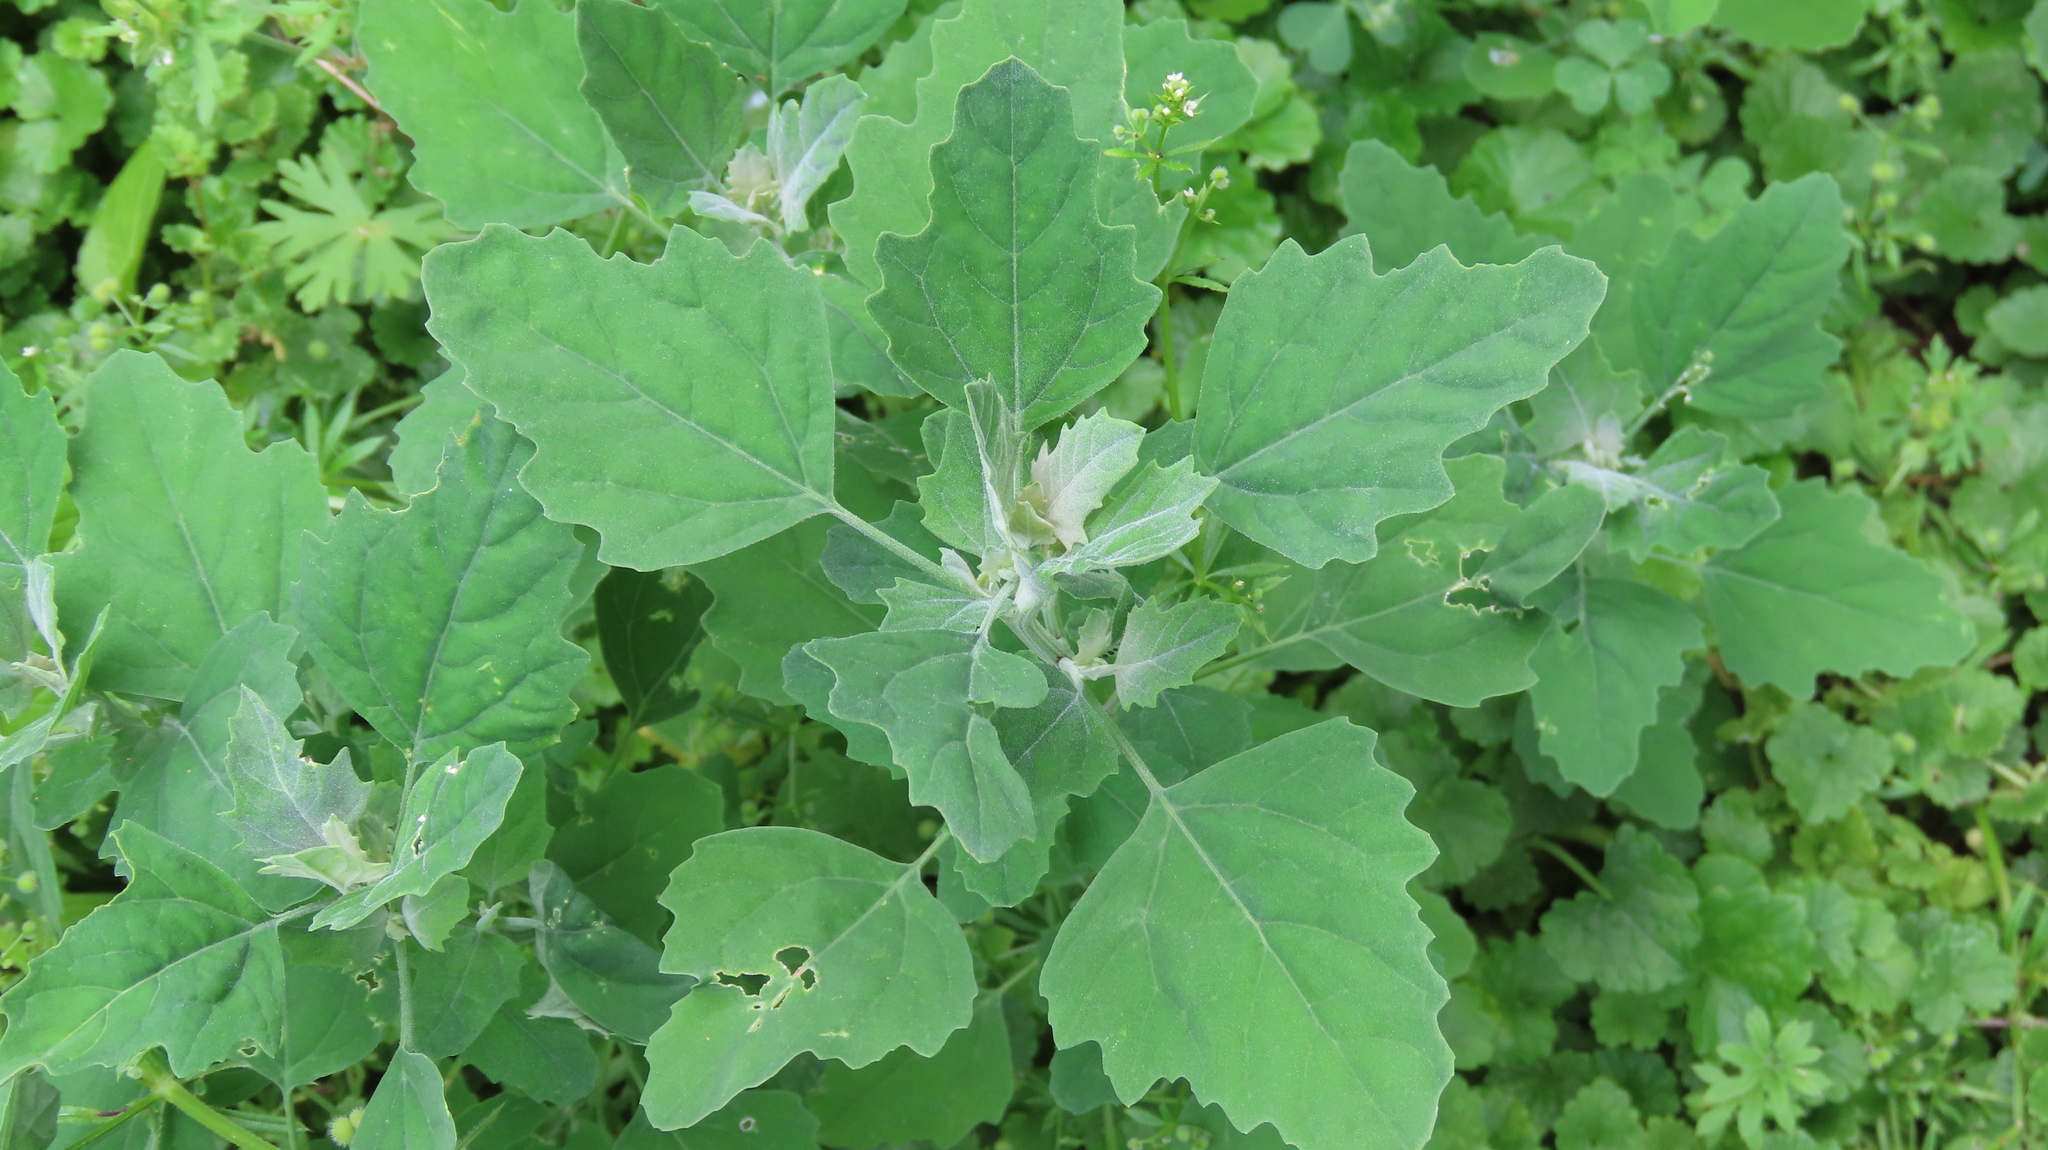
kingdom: Plantae
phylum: Tracheophyta
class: Magnoliopsida
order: Caryophyllales
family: Amaranthaceae
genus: Chenopodium
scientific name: Chenopodium album
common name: Fat-hen
